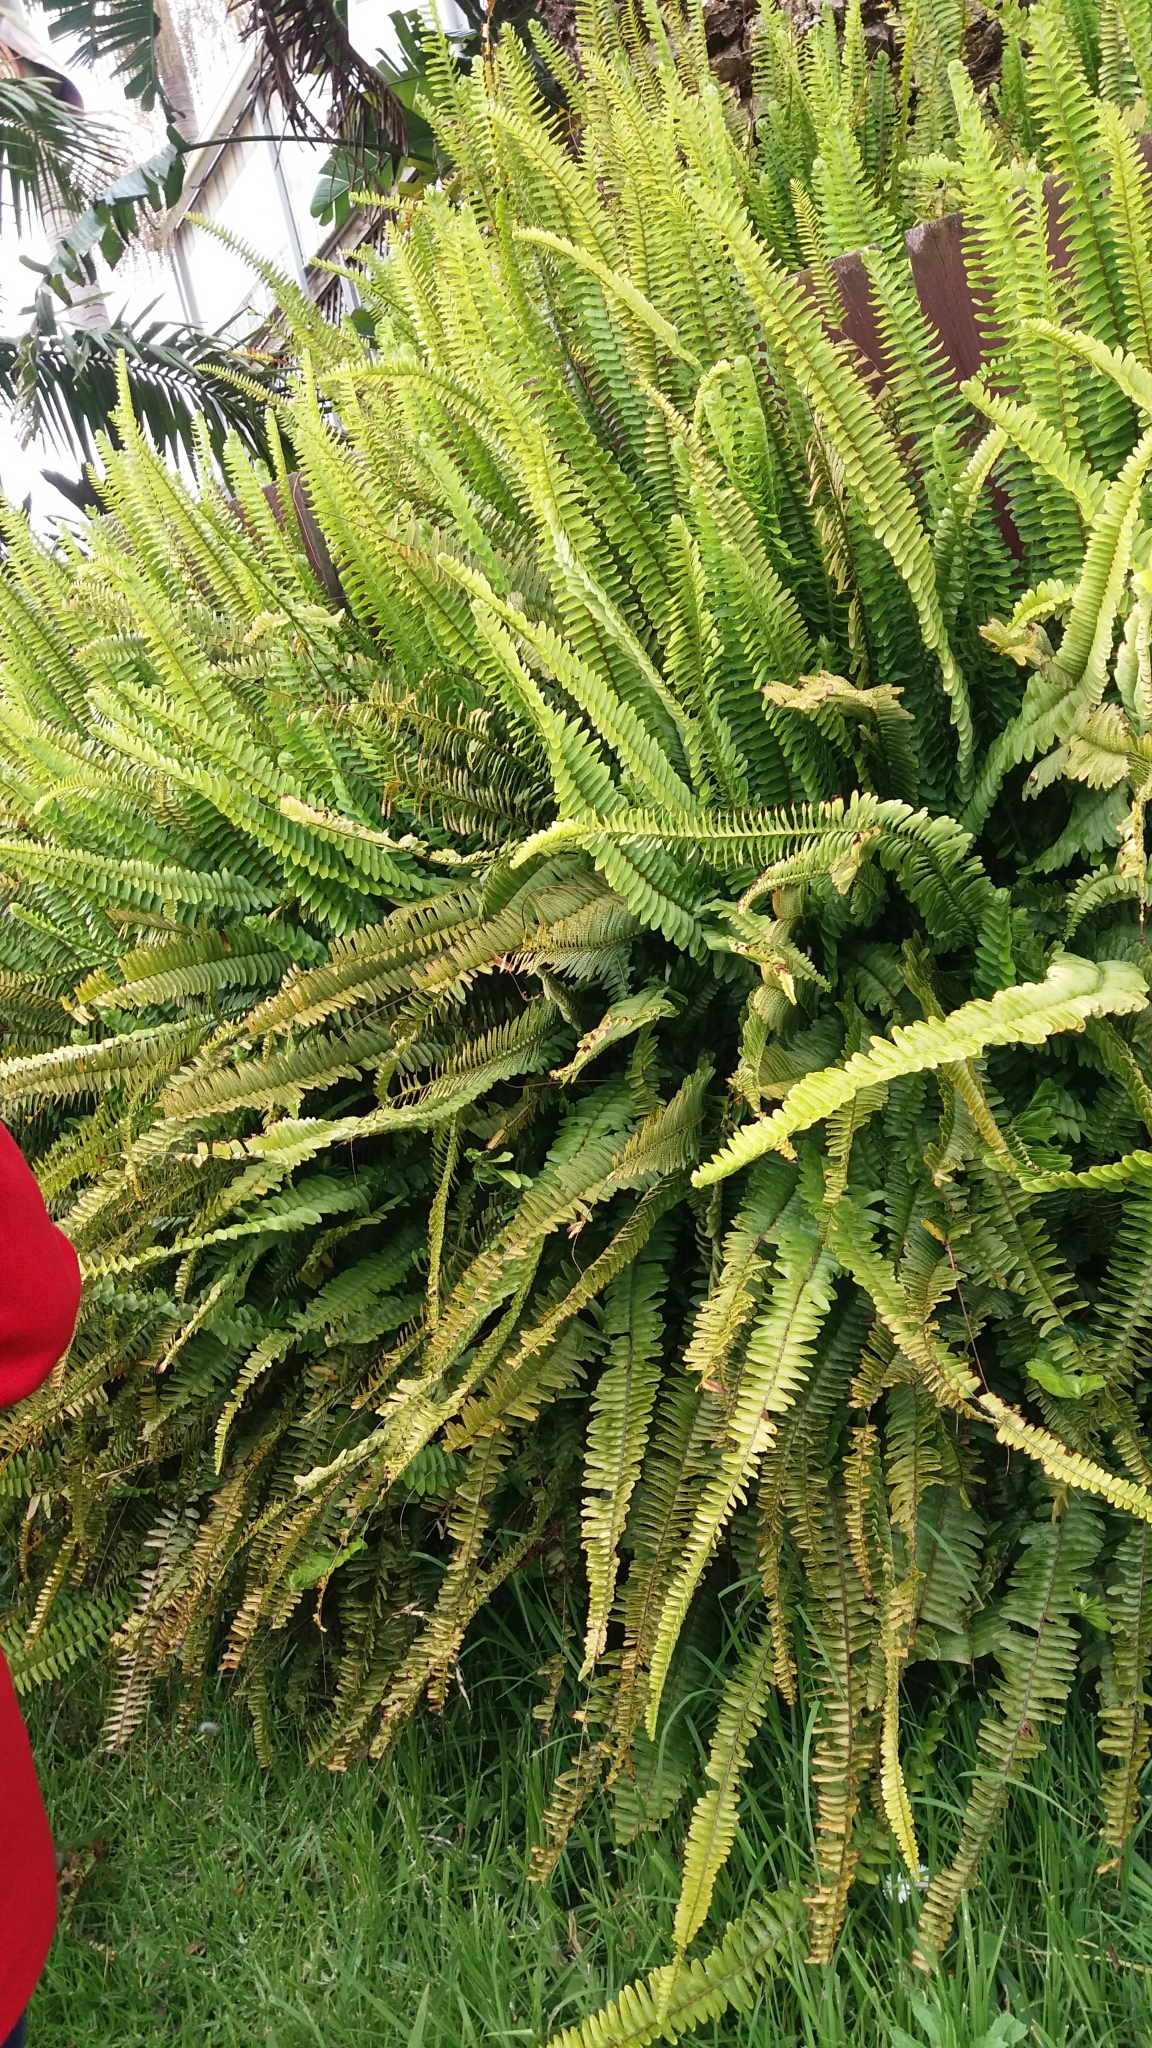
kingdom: Plantae
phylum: Tracheophyta
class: Polypodiopsida
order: Polypodiales
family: Nephrolepidaceae
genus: Nephrolepis
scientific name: Nephrolepis cordifolia
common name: Narrow swordfern
